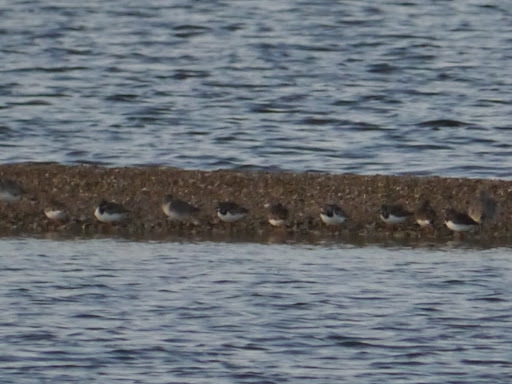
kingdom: Animalia
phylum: Chordata
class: Aves
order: Charadriiformes
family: Scolopacidae
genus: Arenaria
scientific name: Arenaria interpres
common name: Ruddy turnstone
